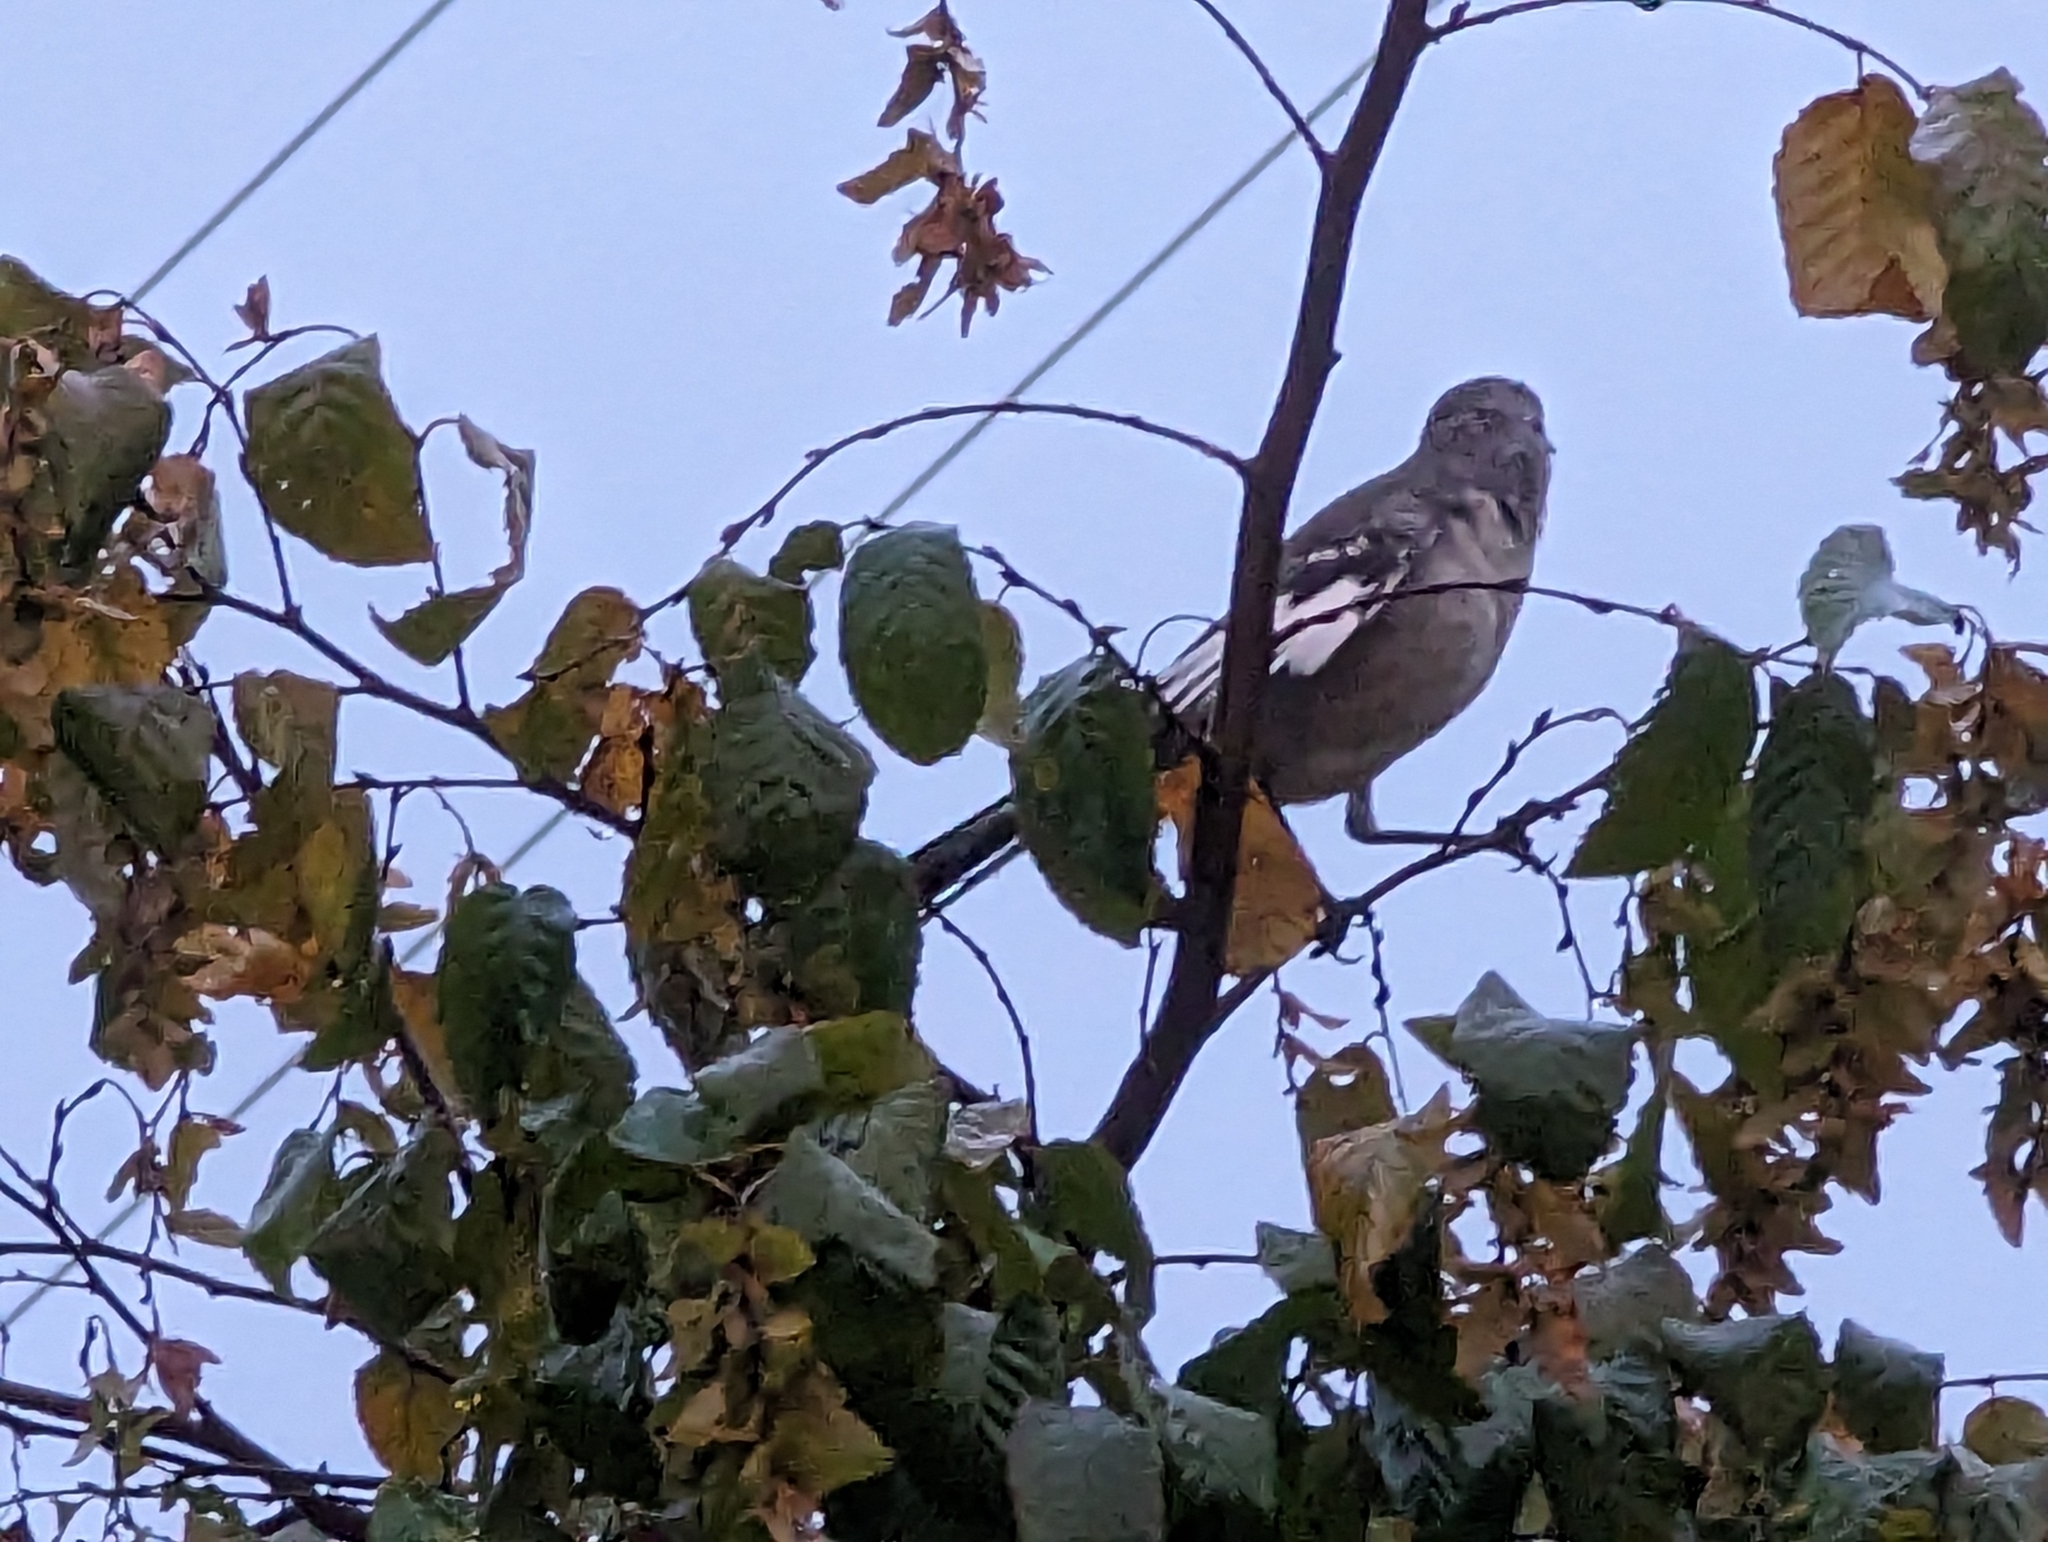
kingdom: Animalia
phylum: Chordata
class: Aves
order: Passeriformes
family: Mimidae
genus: Mimus
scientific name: Mimus polyglottos
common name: Northern mockingbird
